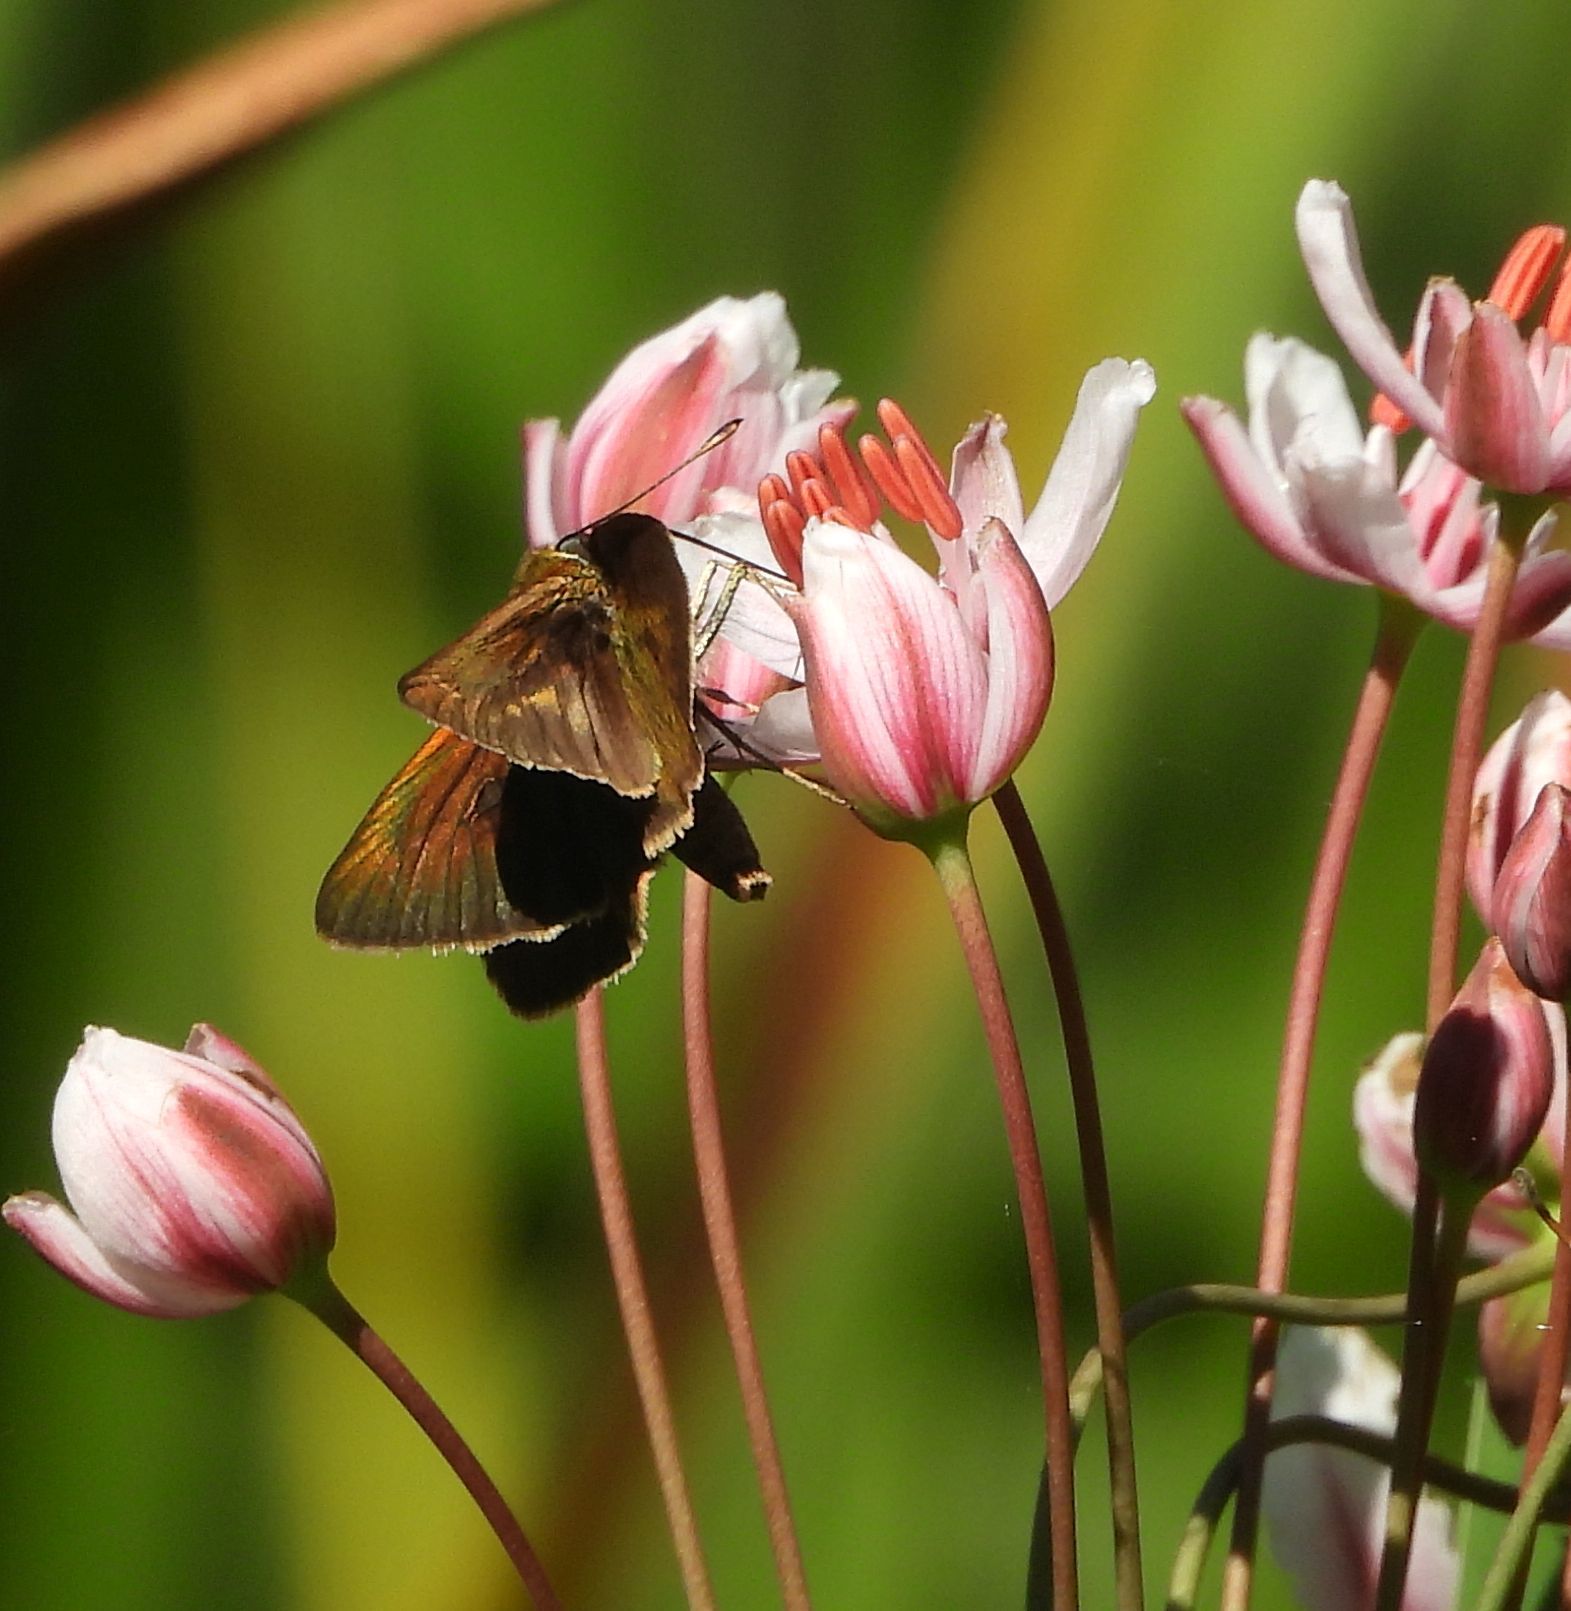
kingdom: Animalia
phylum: Arthropoda
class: Insecta
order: Lepidoptera
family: Hesperiidae
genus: Euphyes
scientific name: Euphyes vestris
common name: Dun skipper
